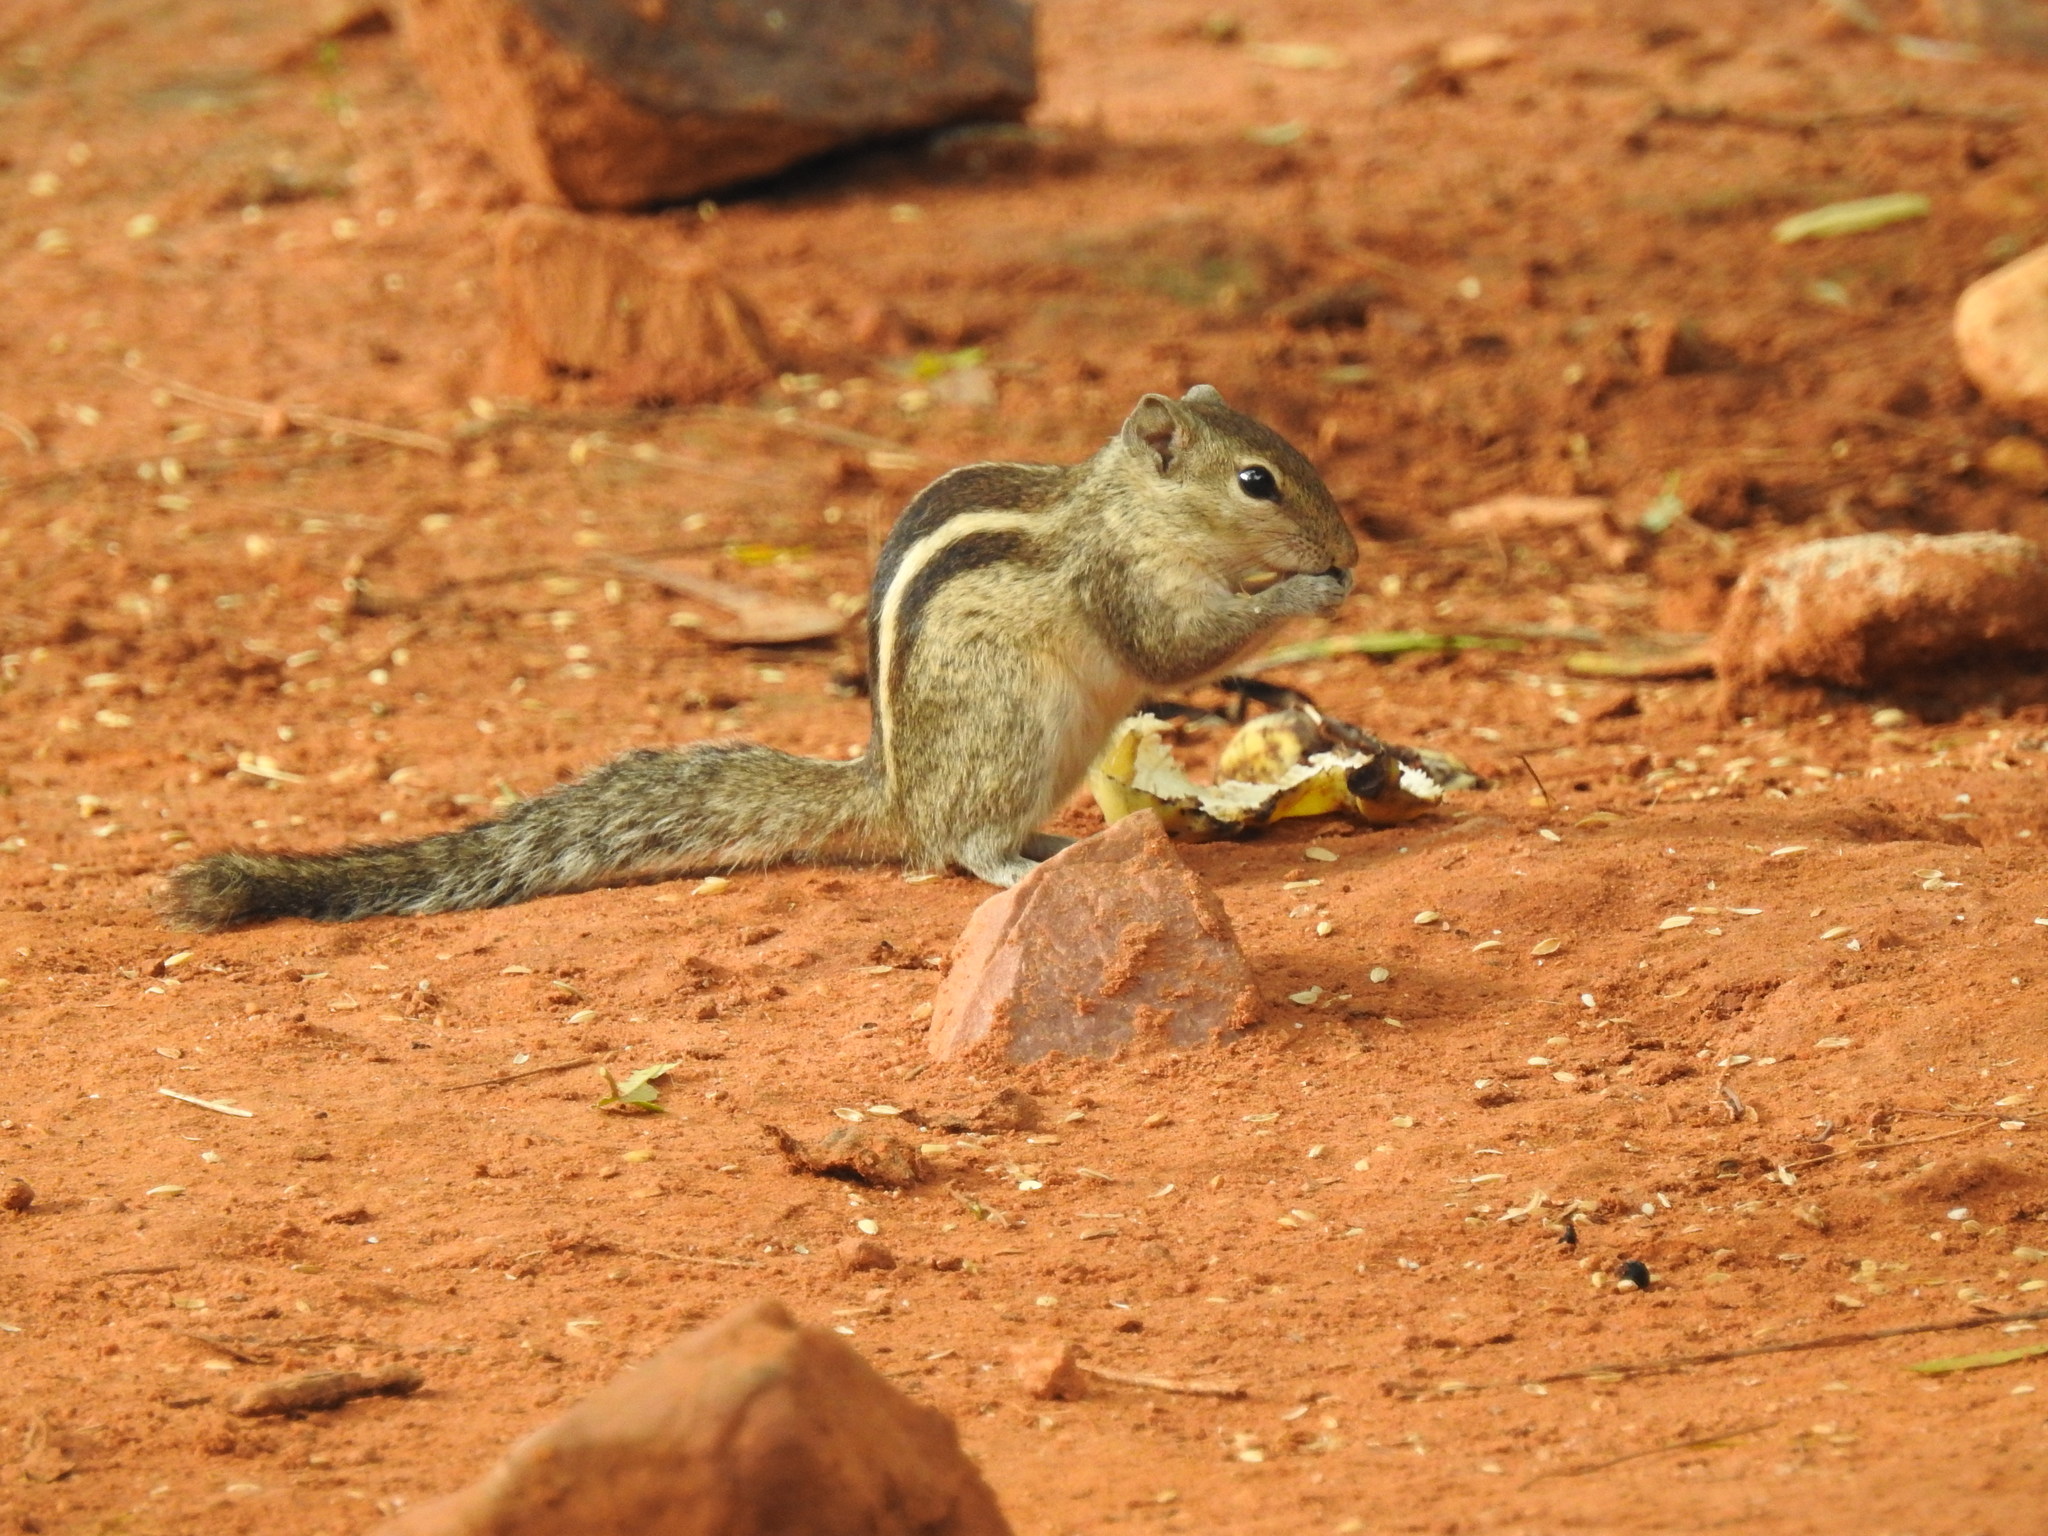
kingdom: Animalia
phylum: Chordata
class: Mammalia
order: Rodentia
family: Sciuridae
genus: Funambulus
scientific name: Funambulus palmarum
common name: Indian palm squirrel
